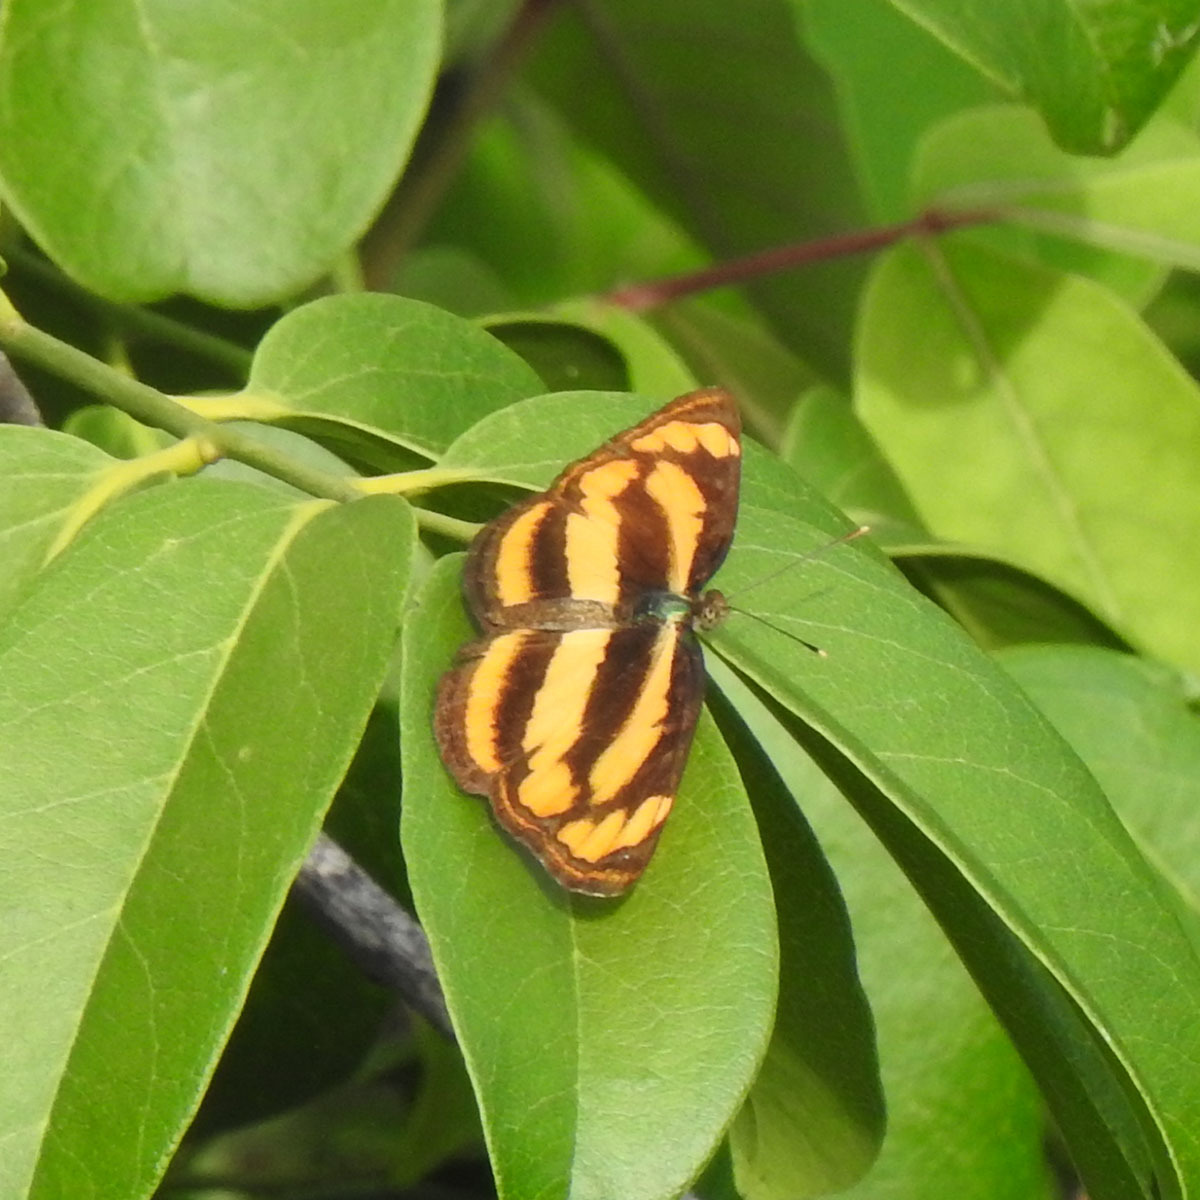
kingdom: Animalia
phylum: Arthropoda
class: Insecta
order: Lepidoptera
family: Nymphalidae
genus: Pantoporia
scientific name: Pantoporia hordonia
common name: Common lascar
